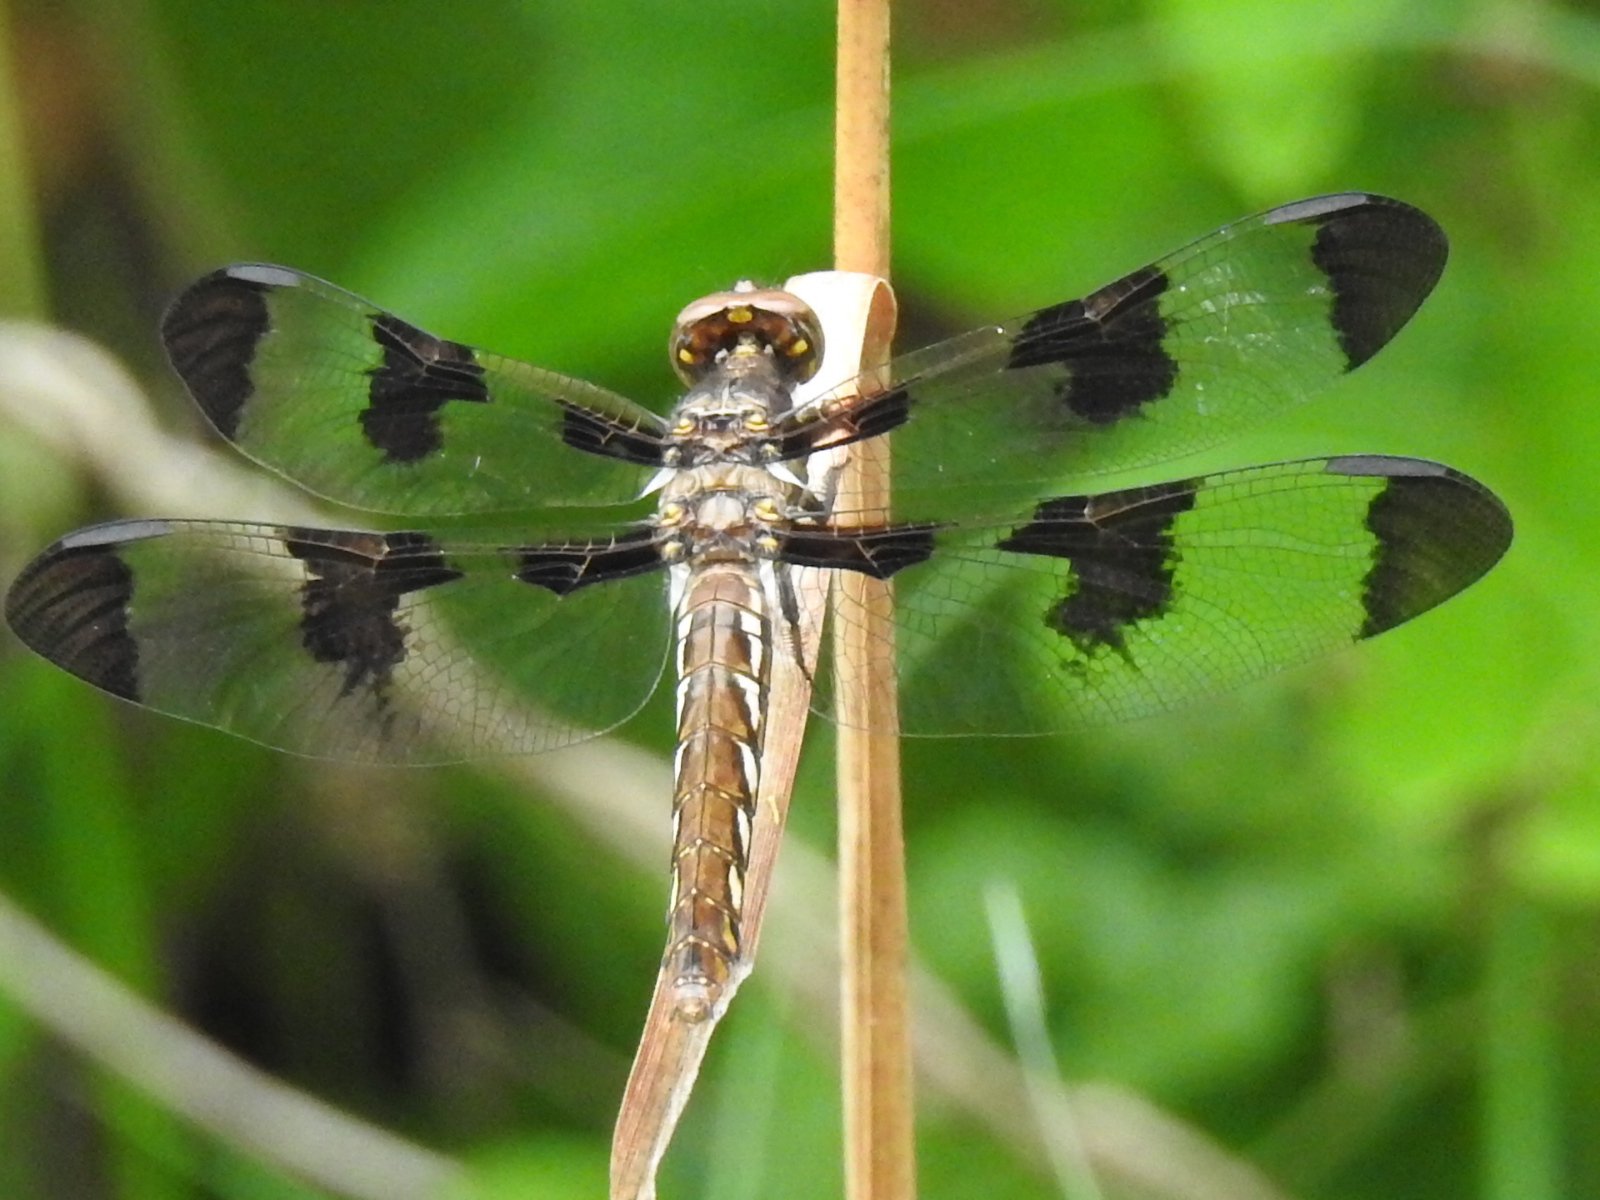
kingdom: Animalia
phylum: Arthropoda
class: Insecta
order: Odonata
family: Libellulidae
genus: Plathemis
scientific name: Plathemis lydia
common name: Common whitetail
